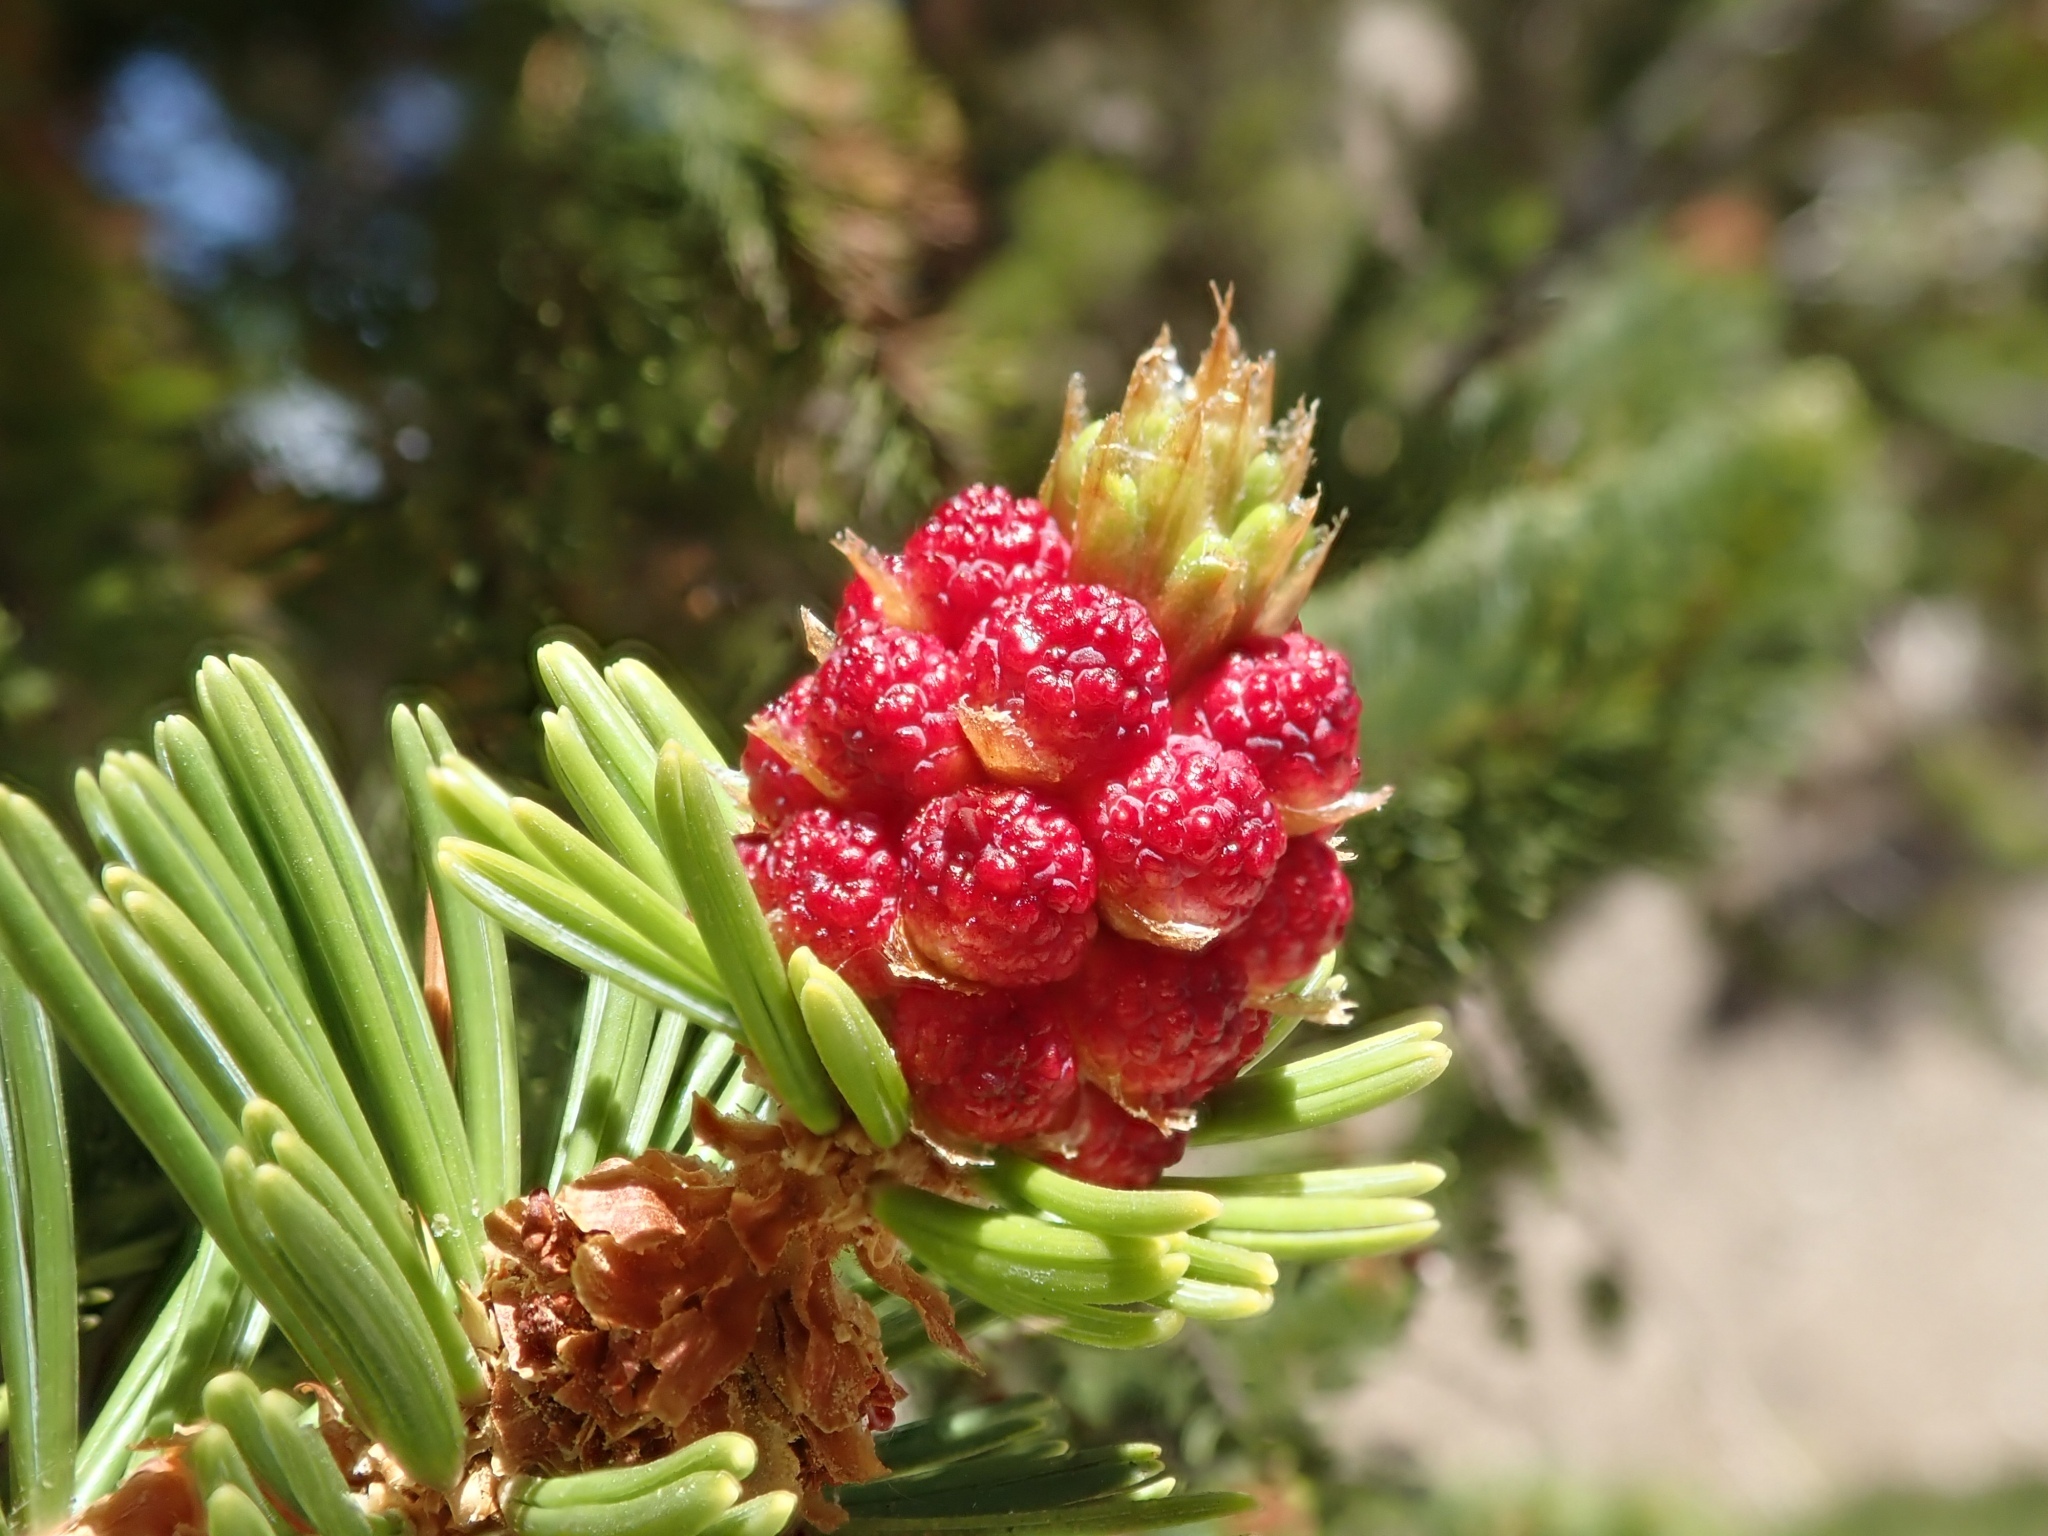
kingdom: Plantae
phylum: Tracheophyta
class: Pinopsida
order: Pinales
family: Pinaceae
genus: Pinus
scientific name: Pinus longaeva
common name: Intermountain bristlecone pine
